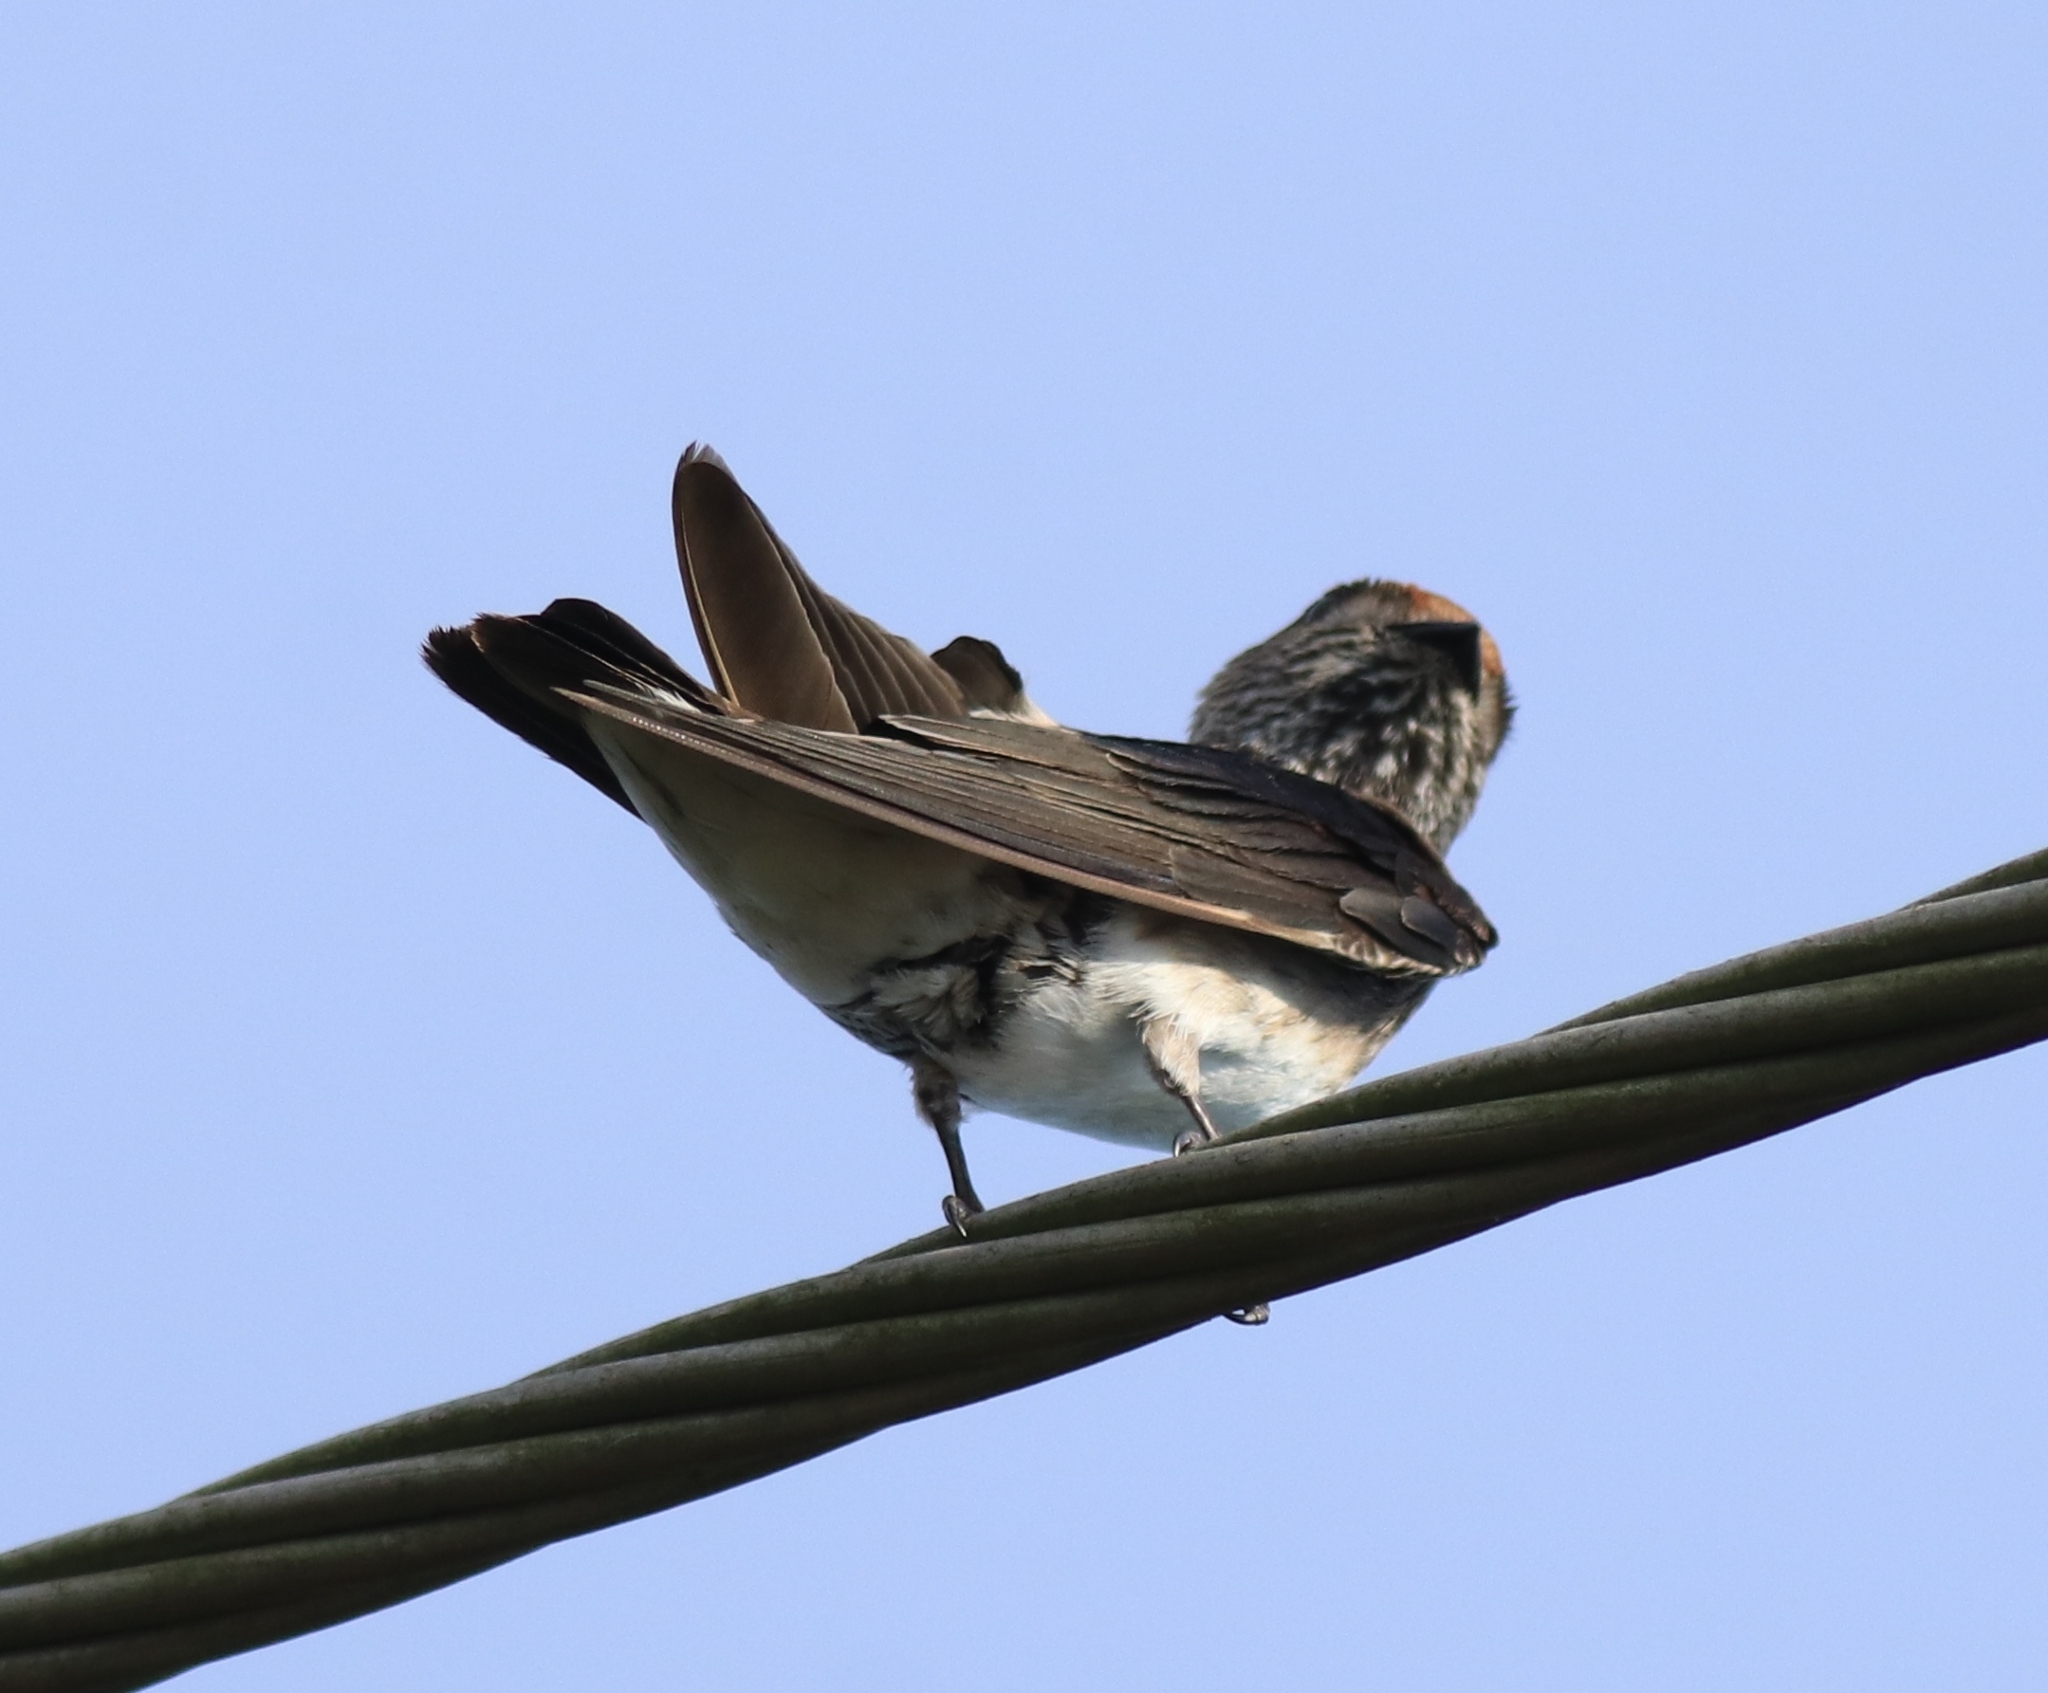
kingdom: Animalia
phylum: Chordata
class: Aves
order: Passeriformes
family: Hirundinidae
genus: Petrochelidon
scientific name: Petrochelidon fluvicola
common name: Streak-throated swallow
